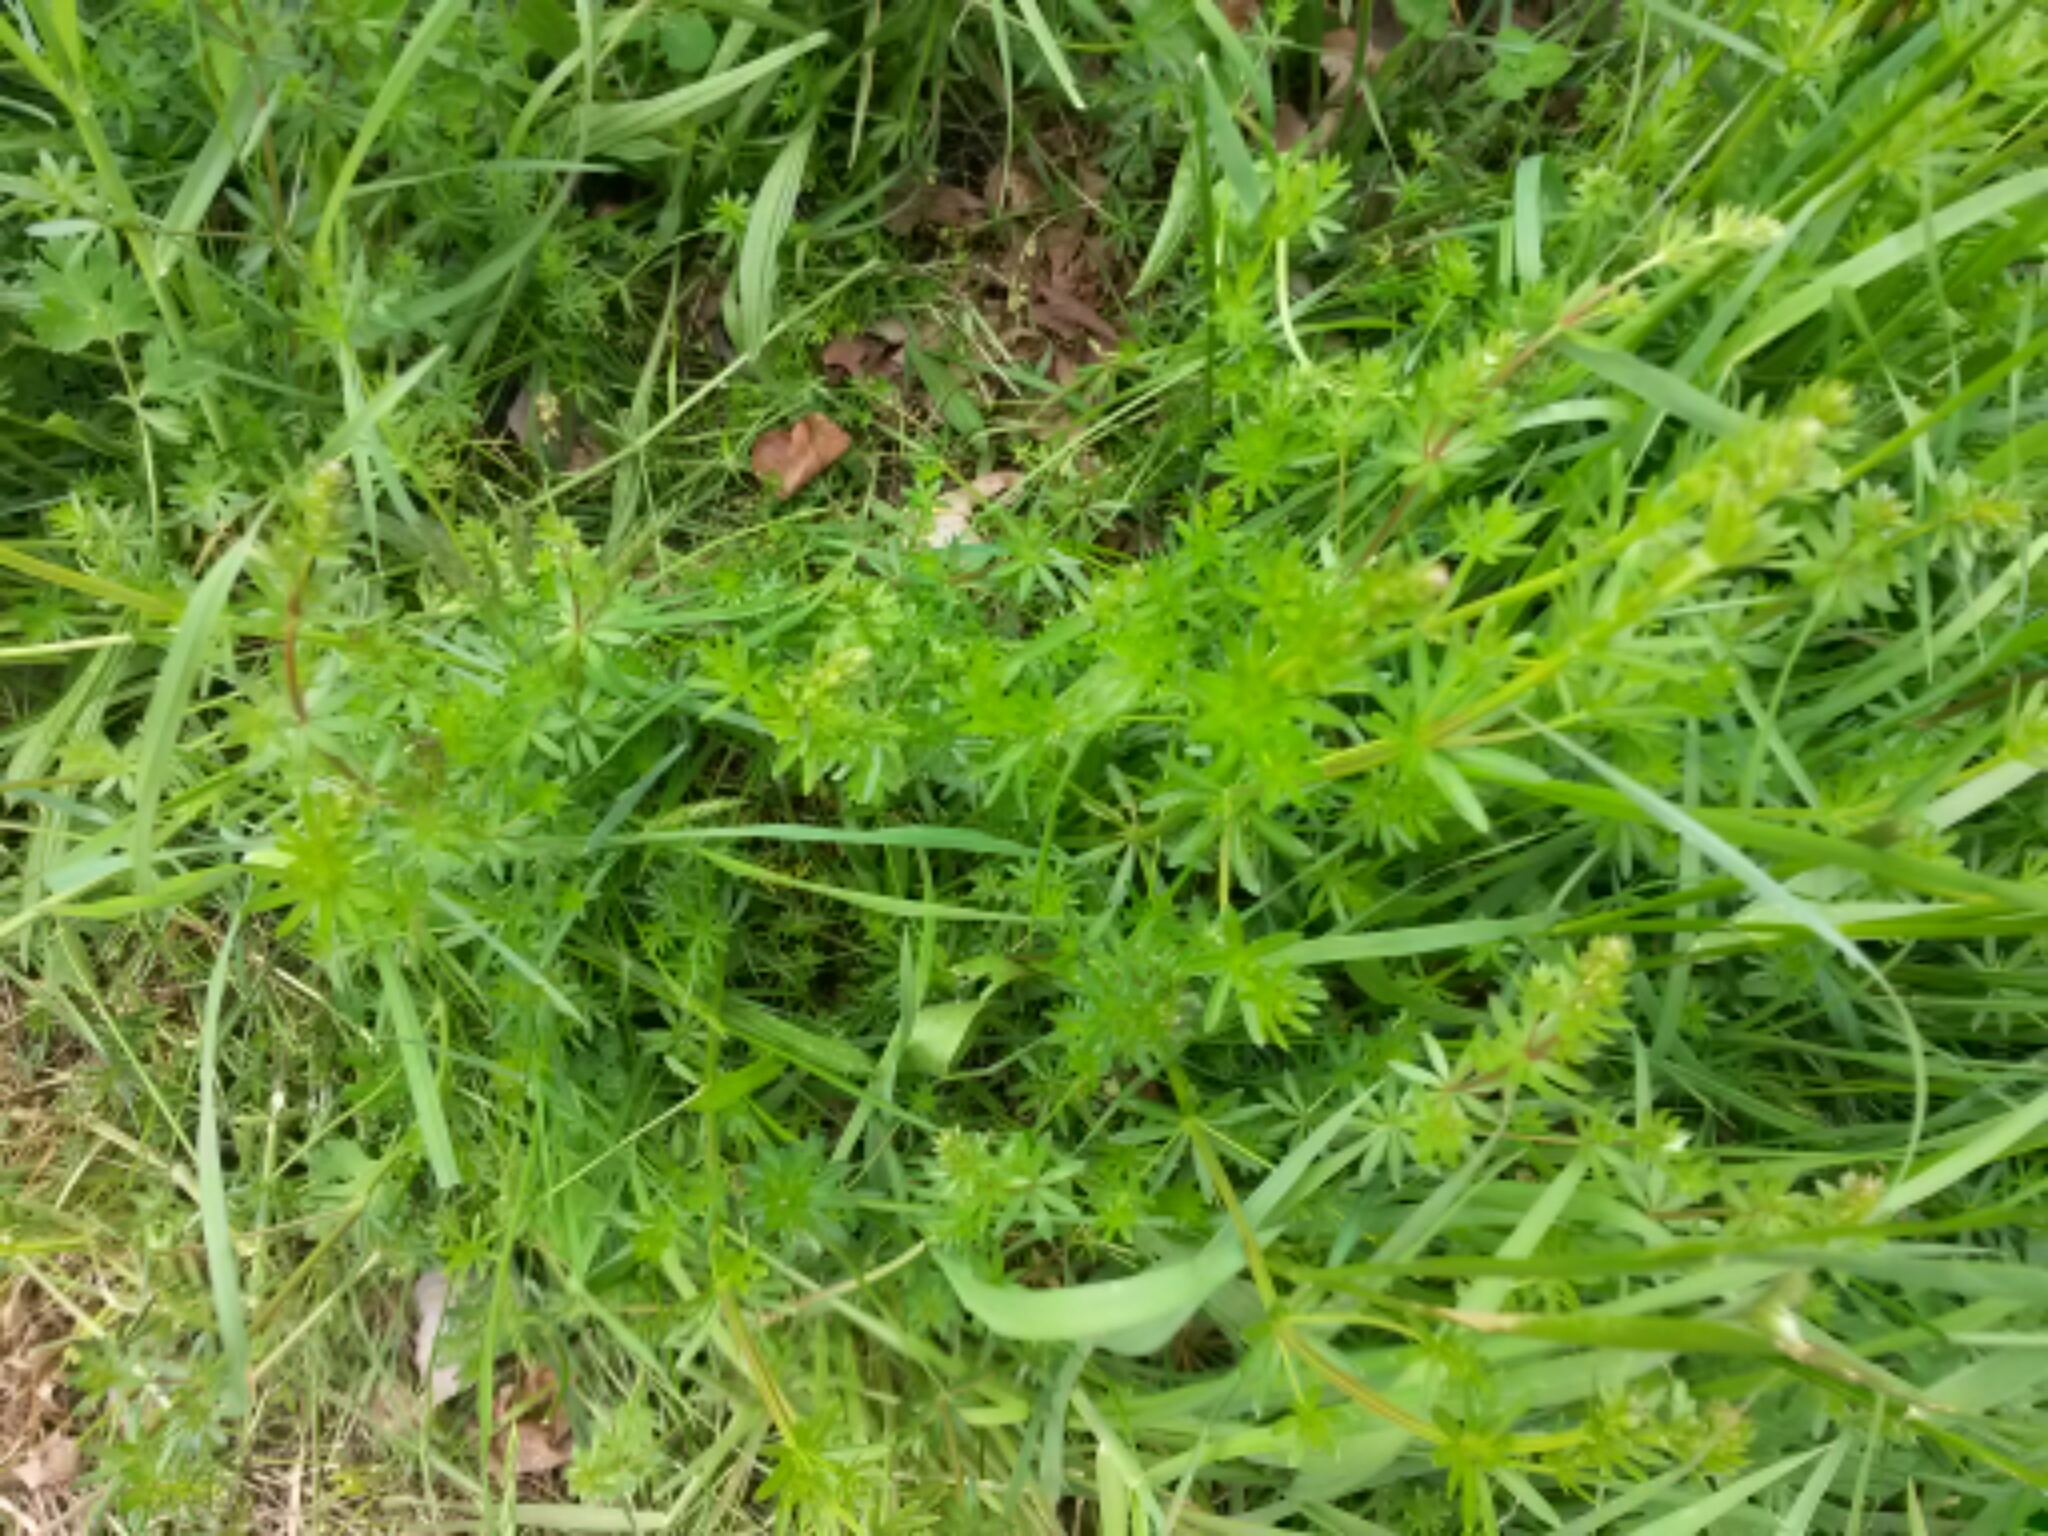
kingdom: Plantae
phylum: Tracheophyta
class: Magnoliopsida
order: Gentianales
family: Rubiaceae
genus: Galium
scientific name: Galium mollugo
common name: Hedge bedstraw
